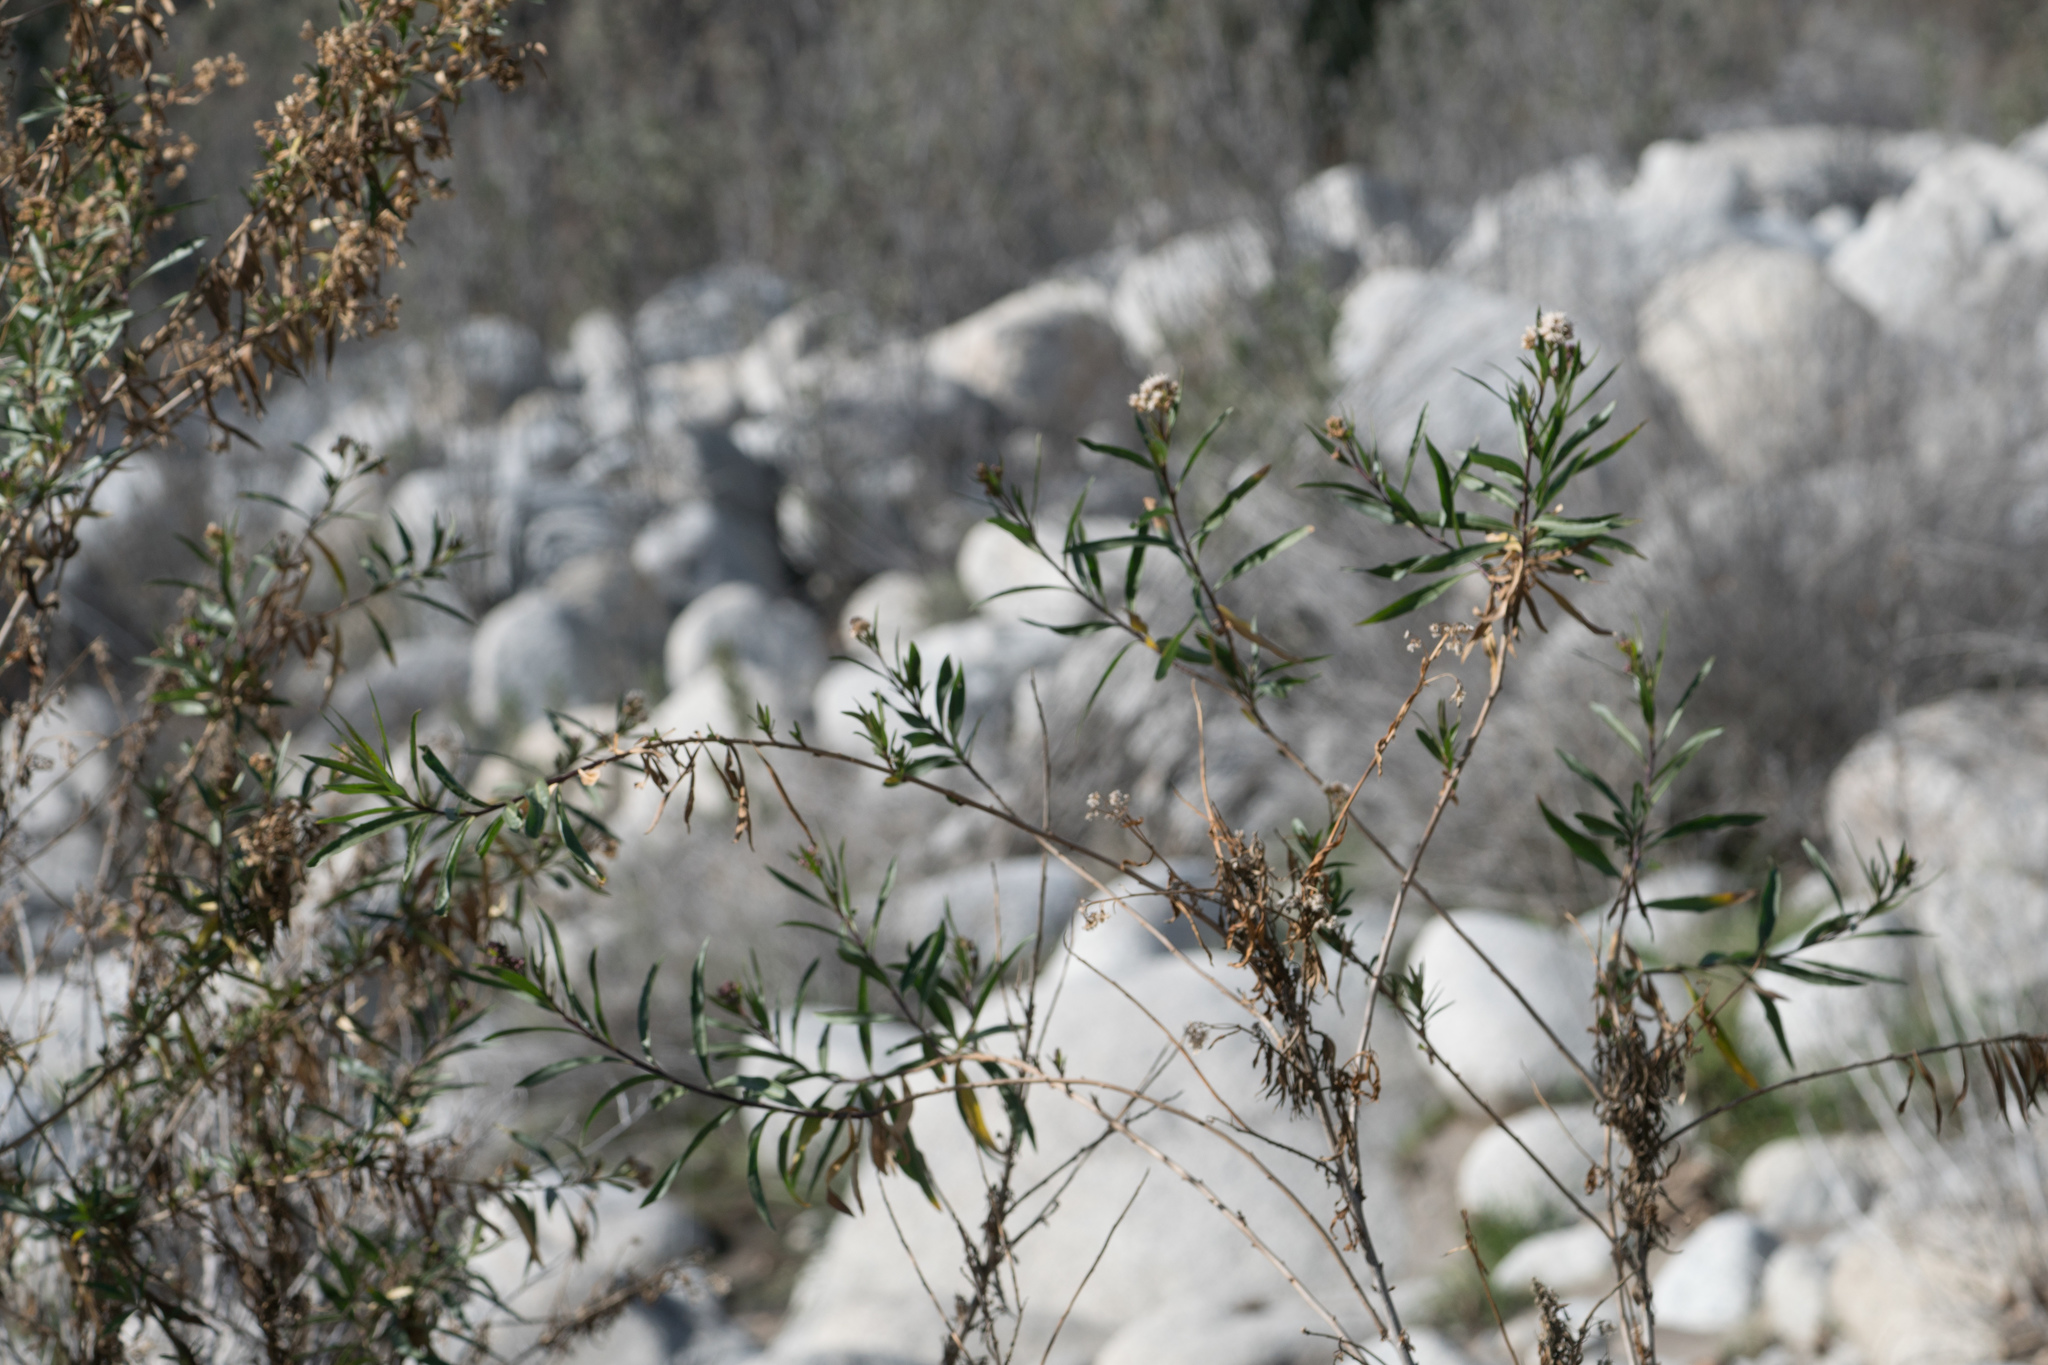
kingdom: Plantae
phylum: Tracheophyta
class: Magnoliopsida
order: Asterales
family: Asteraceae
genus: Baccharis
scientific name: Baccharis salicifolia
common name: Sticky baccharis
